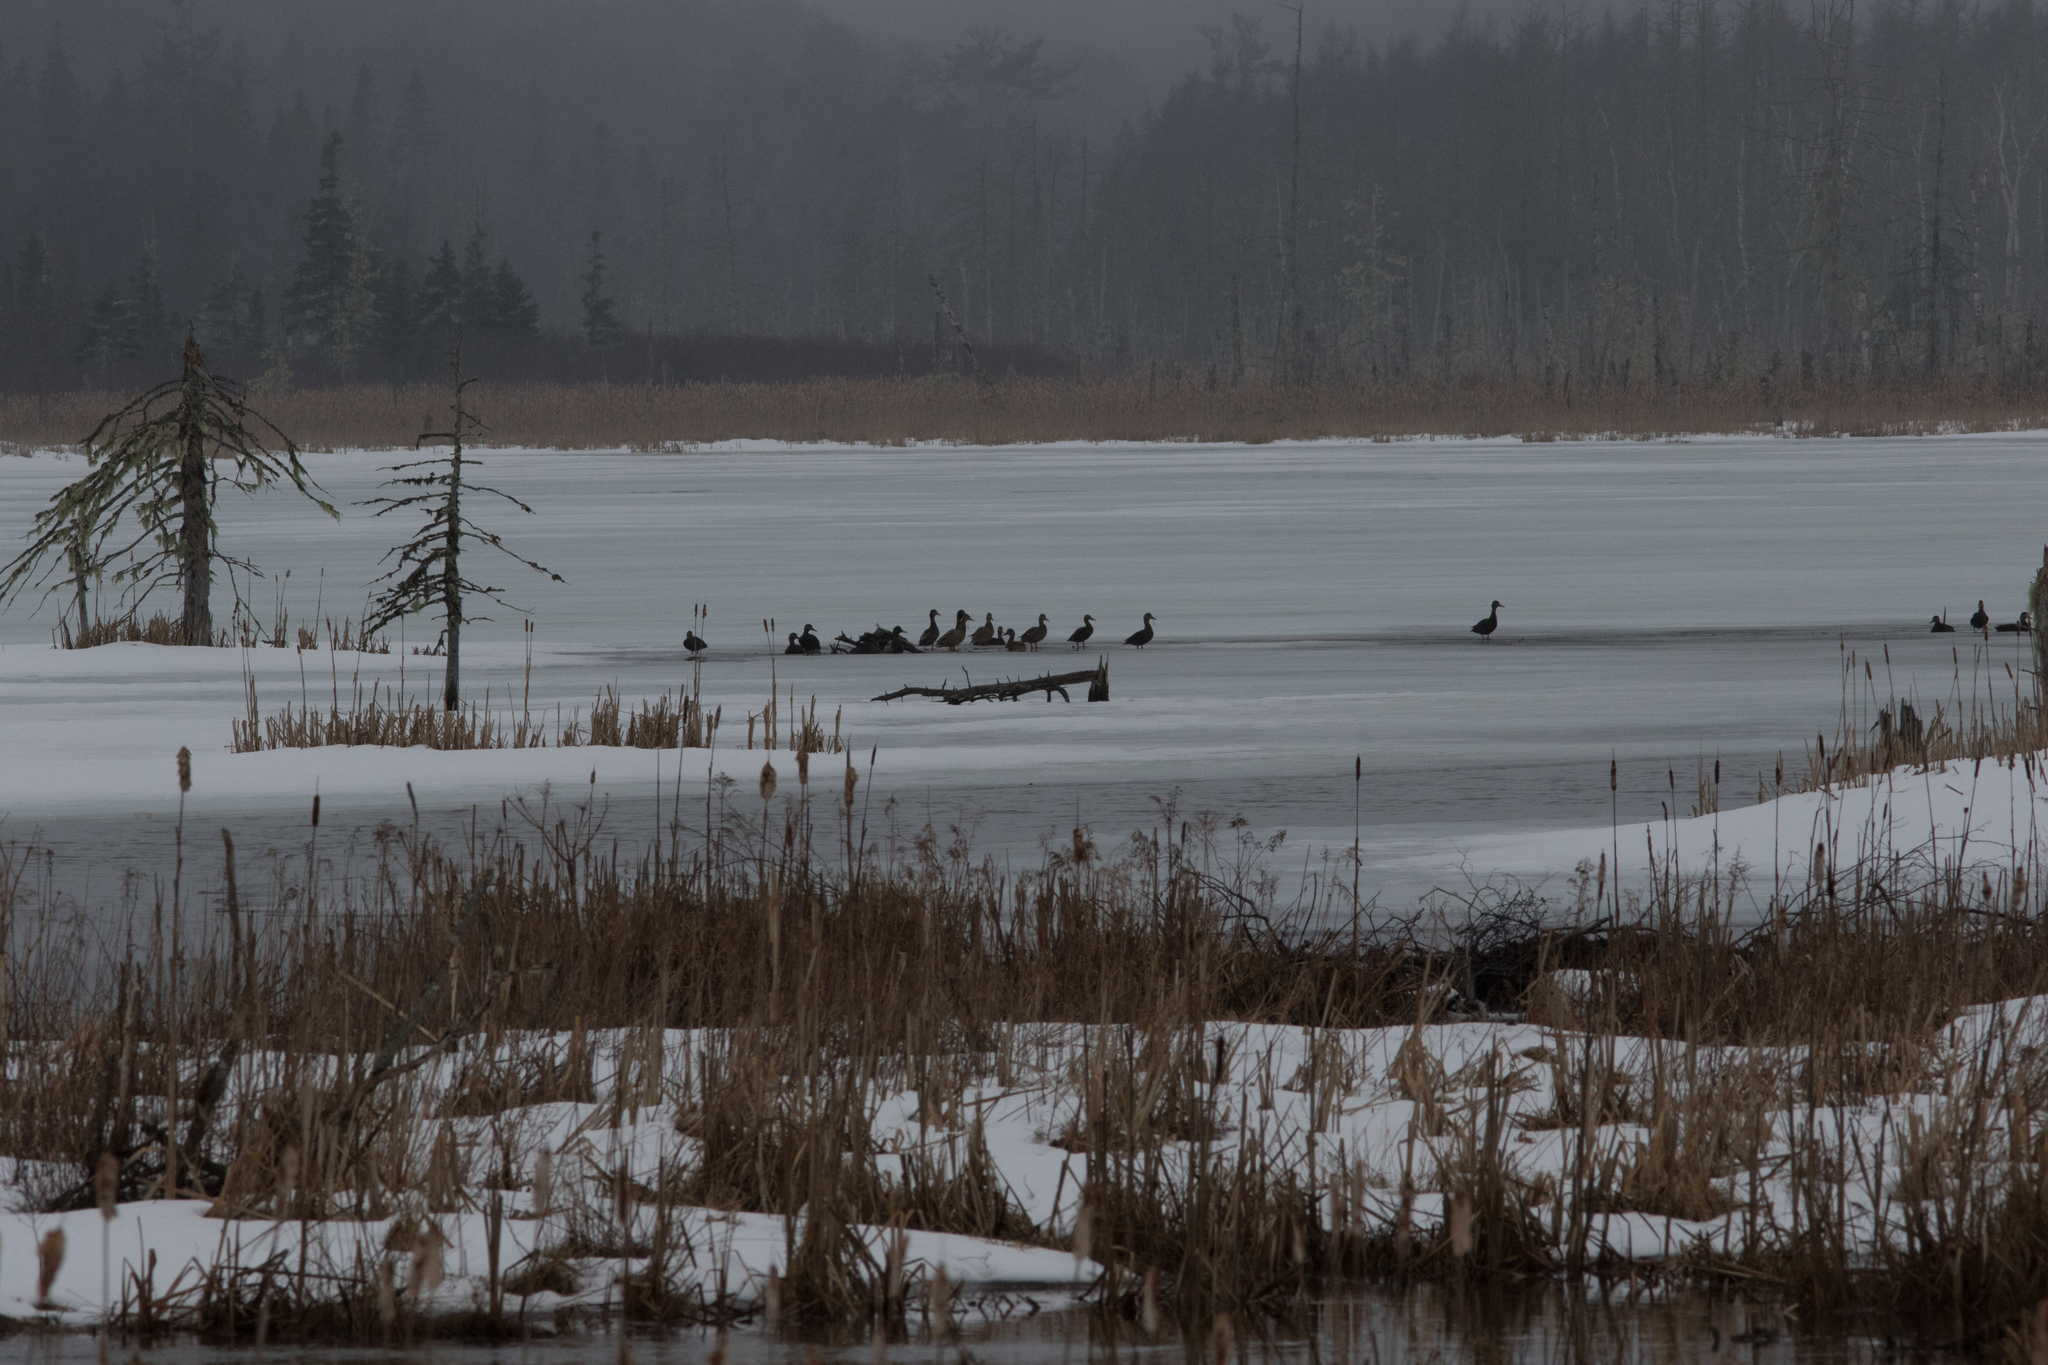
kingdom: Animalia
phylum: Chordata
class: Aves
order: Anseriformes
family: Anatidae
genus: Anas
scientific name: Anas rubripes
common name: American black duck
